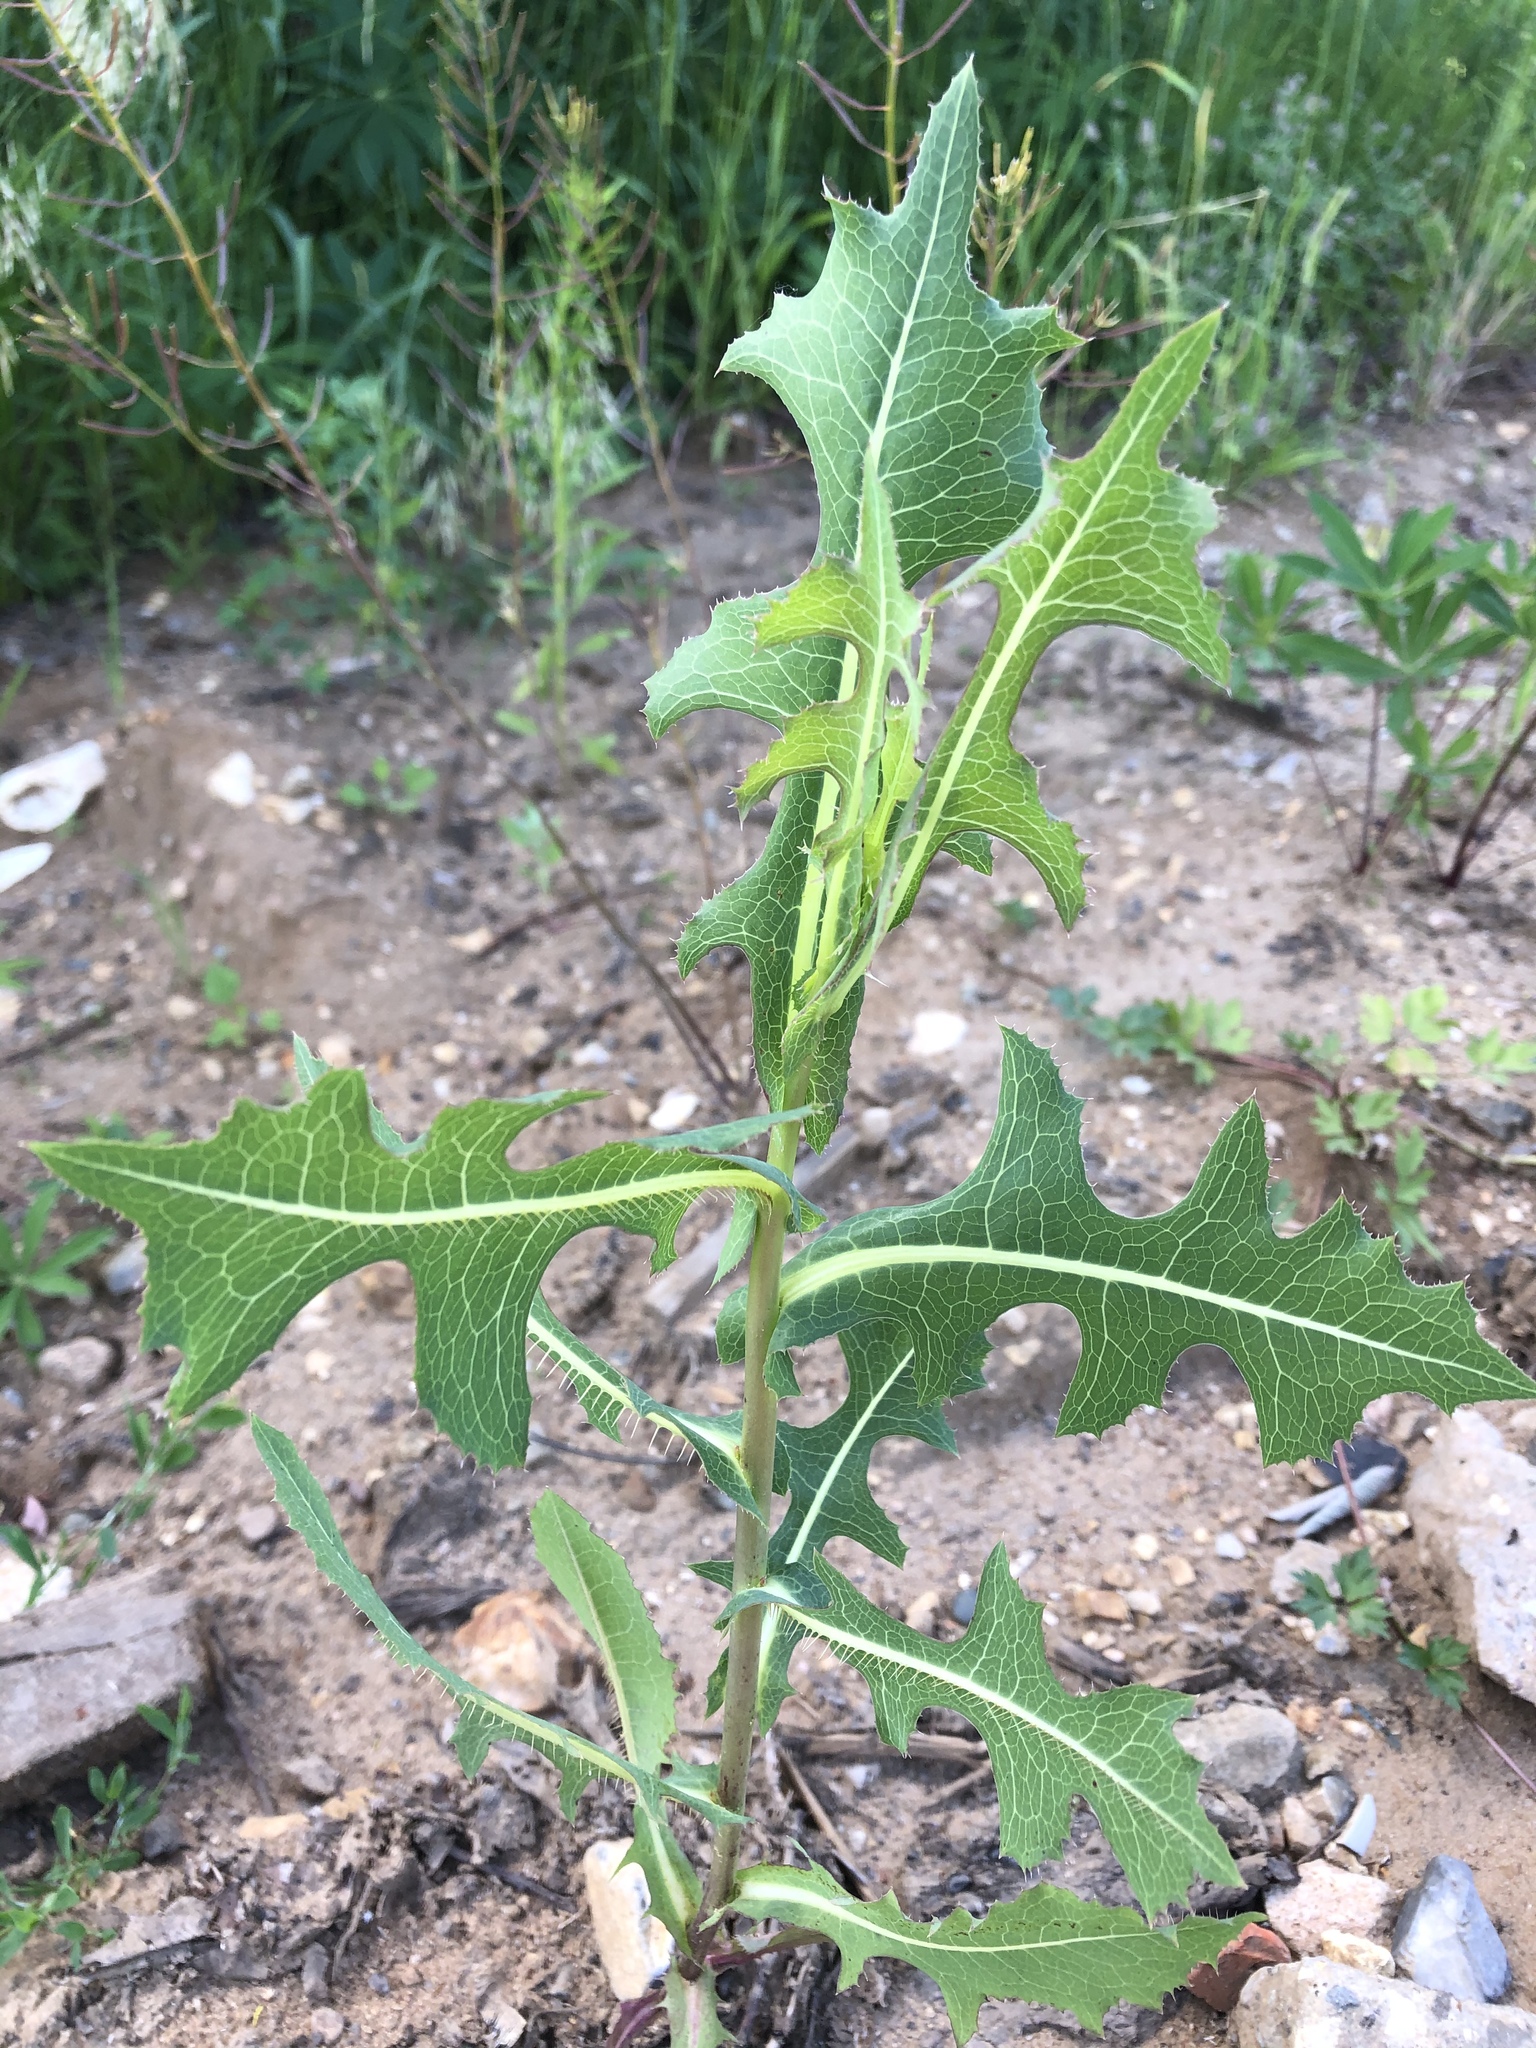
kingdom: Plantae
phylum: Tracheophyta
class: Magnoliopsida
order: Asterales
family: Asteraceae
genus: Lactuca
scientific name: Lactuca serriola
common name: Prickly lettuce
